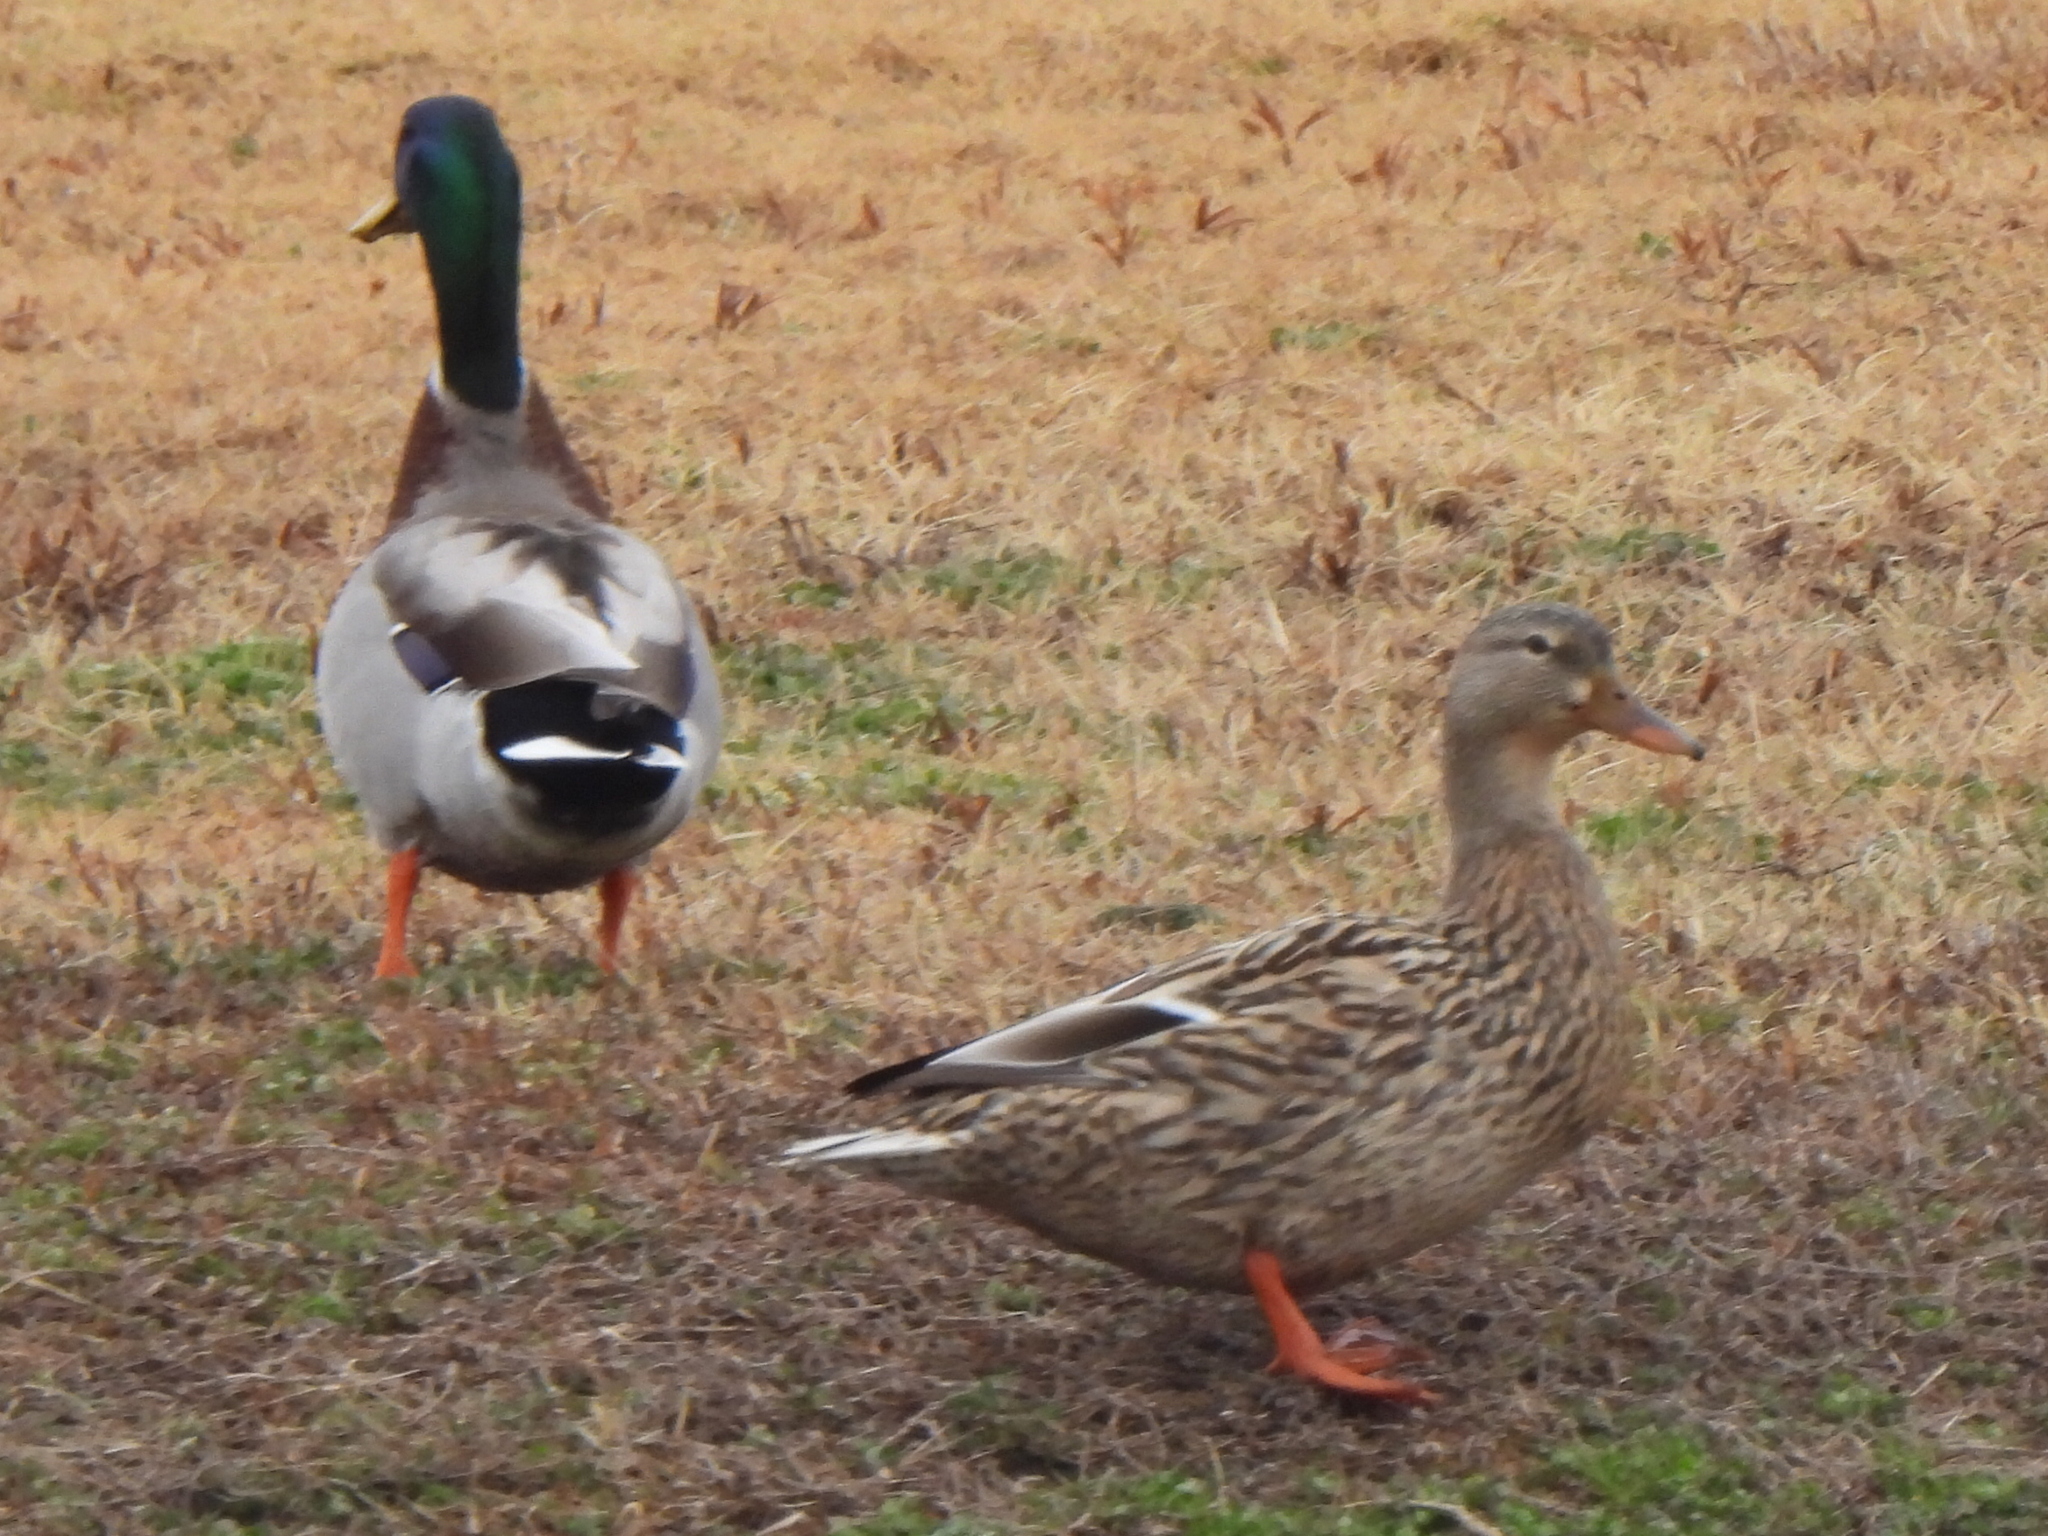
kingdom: Animalia
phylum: Chordata
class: Aves
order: Anseriformes
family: Anatidae
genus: Anas
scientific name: Anas platyrhynchos
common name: Mallard
